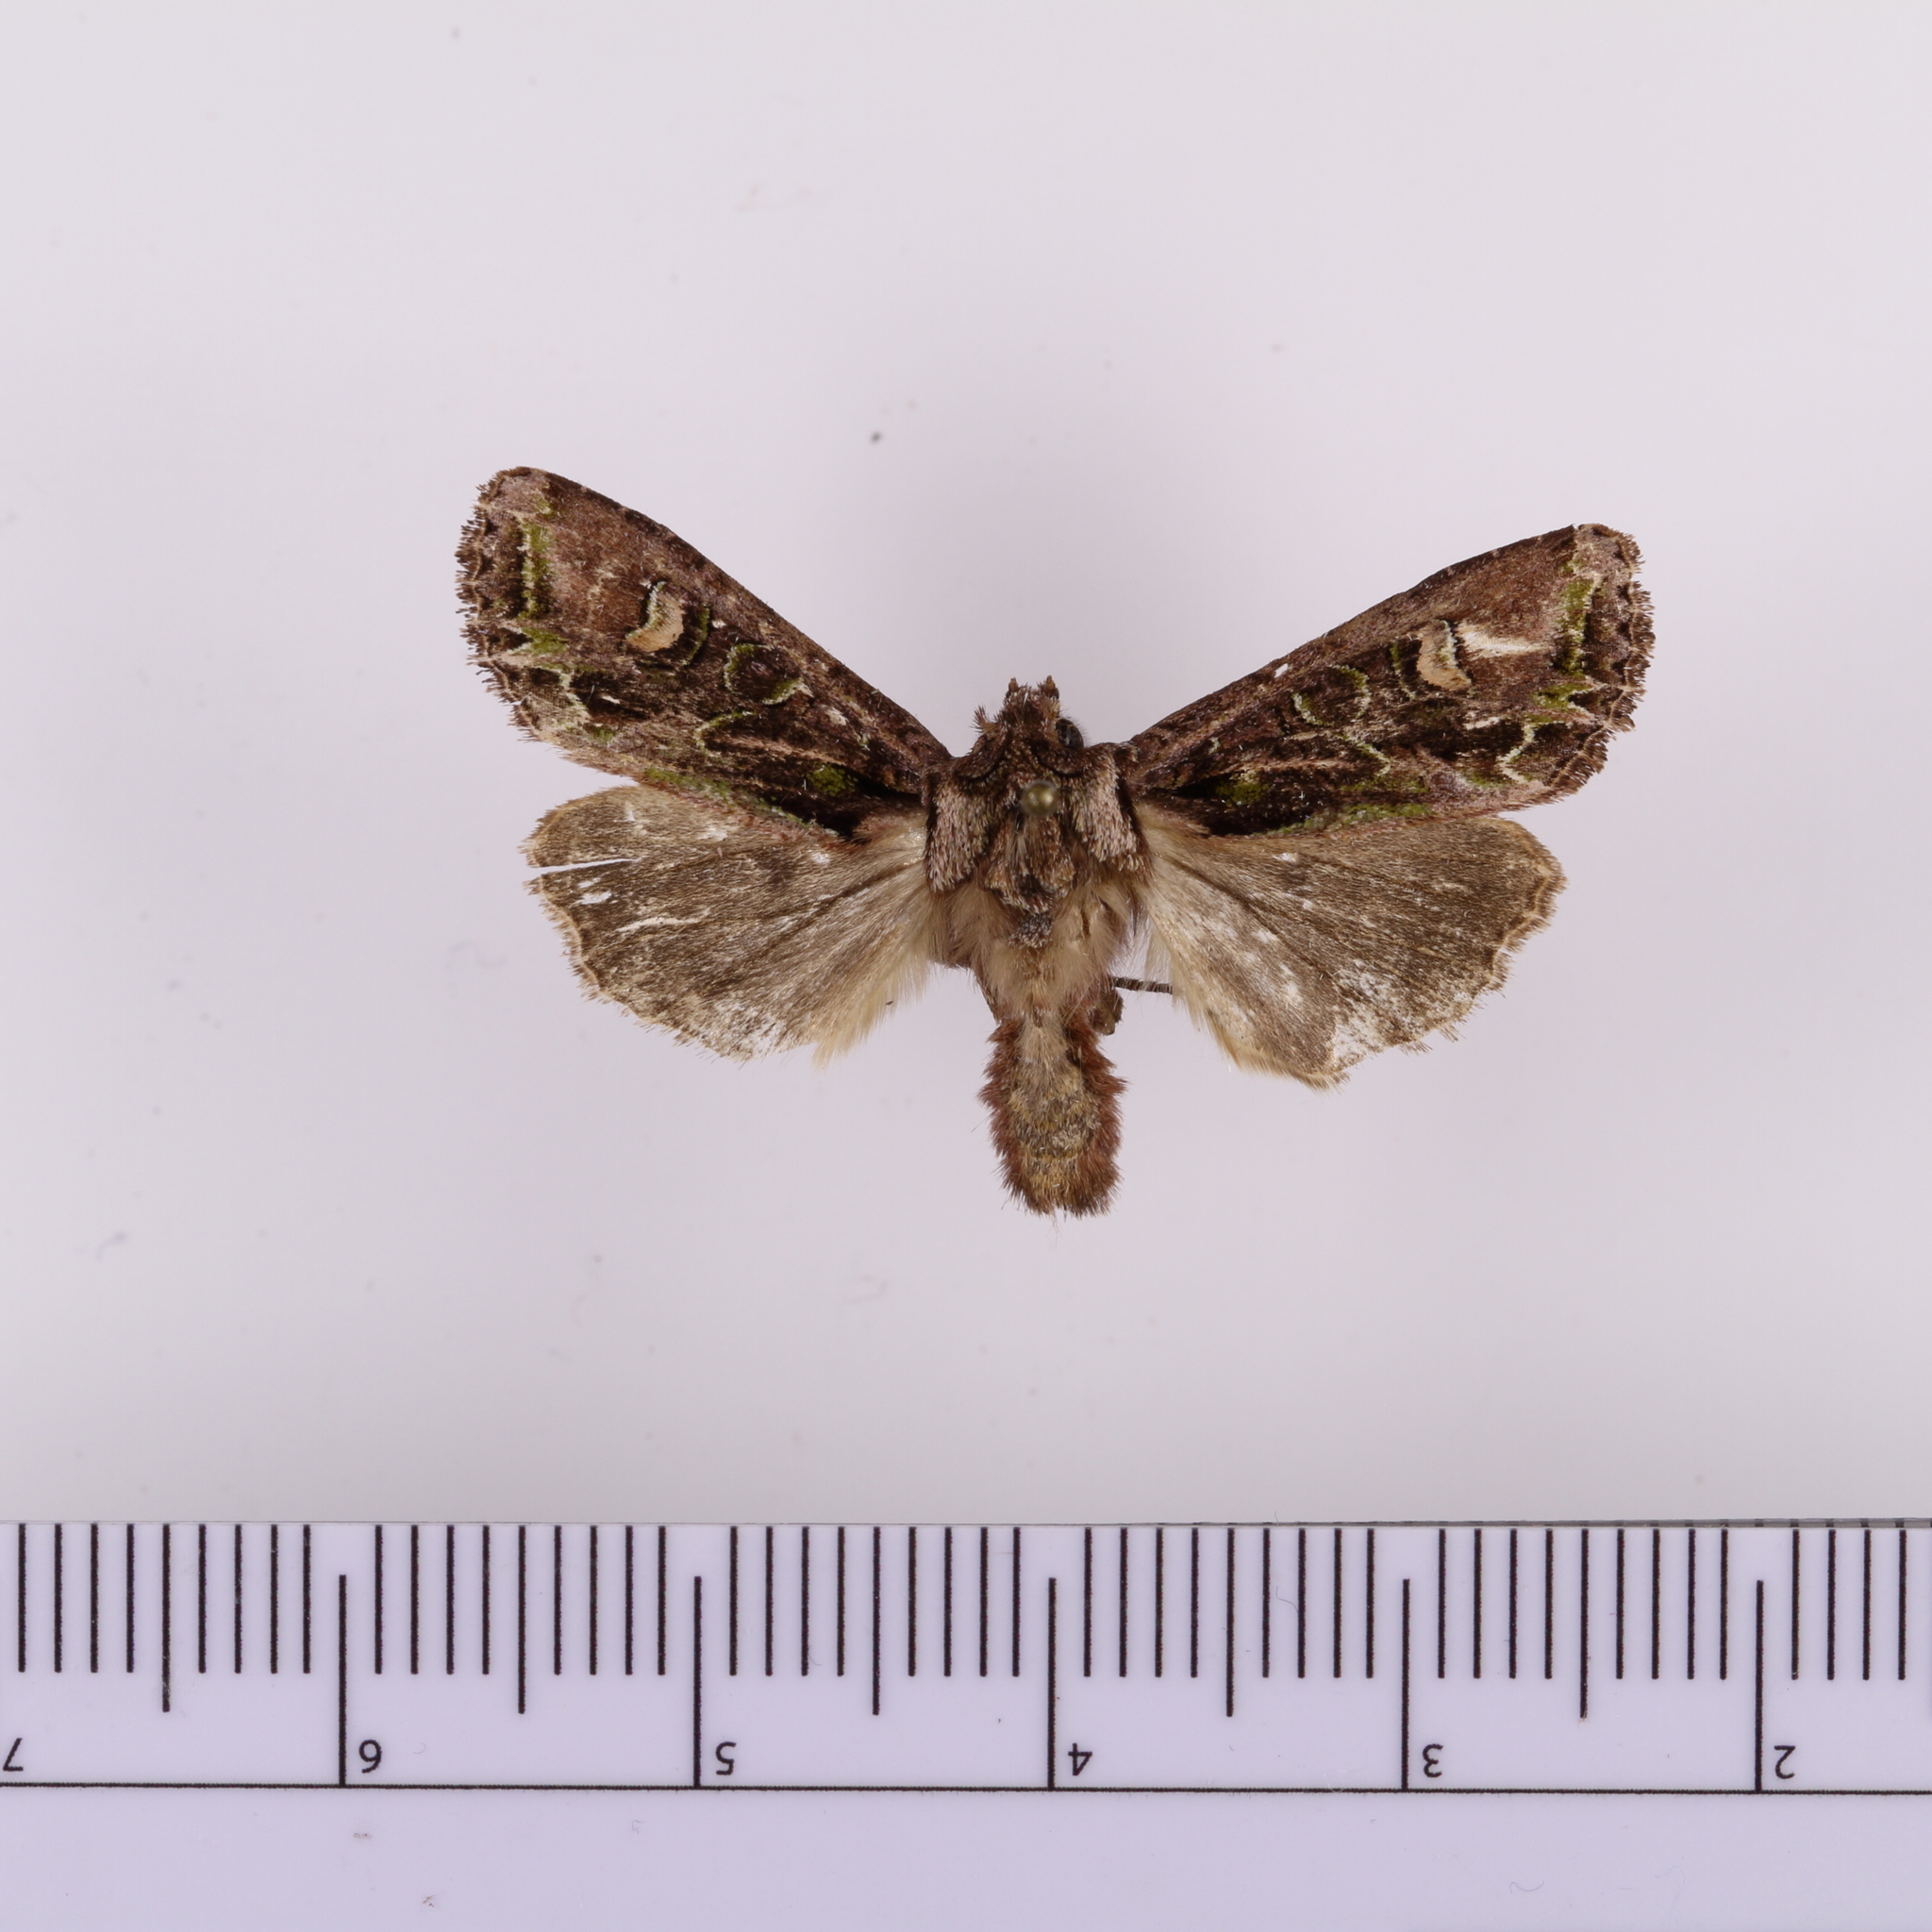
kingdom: Animalia
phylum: Arthropoda
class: Insecta
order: Lepidoptera
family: Noctuidae
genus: Ichneutica
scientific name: Ichneutica insignis
